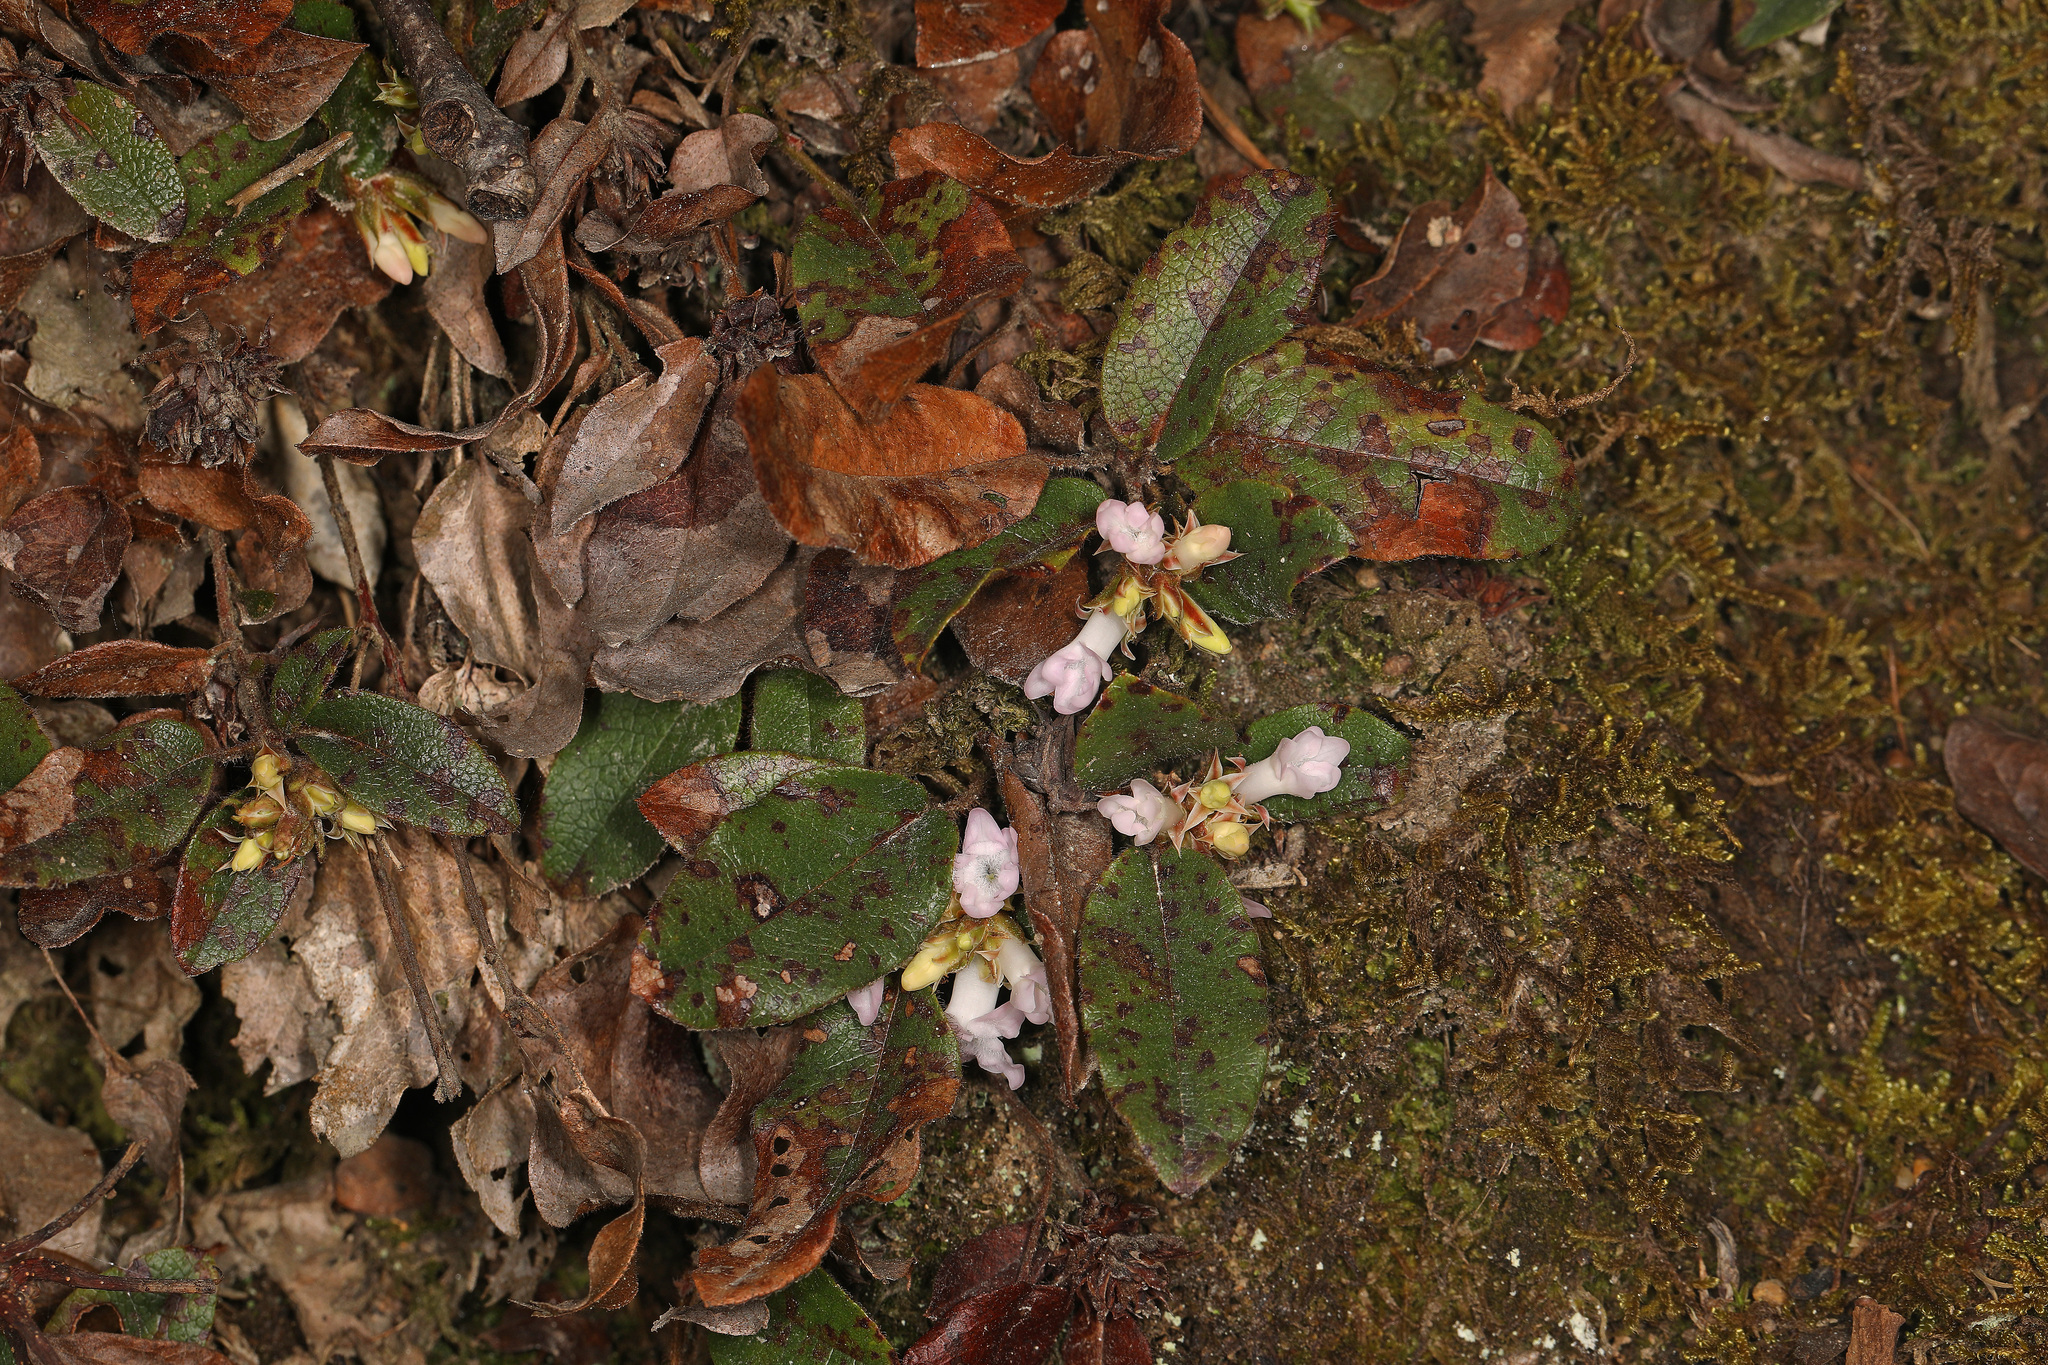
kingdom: Plantae
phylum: Tracheophyta
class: Magnoliopsida
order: Ericales
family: Ericaceae
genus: Epigaea
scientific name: Epigaea repens
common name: Gravelroot
